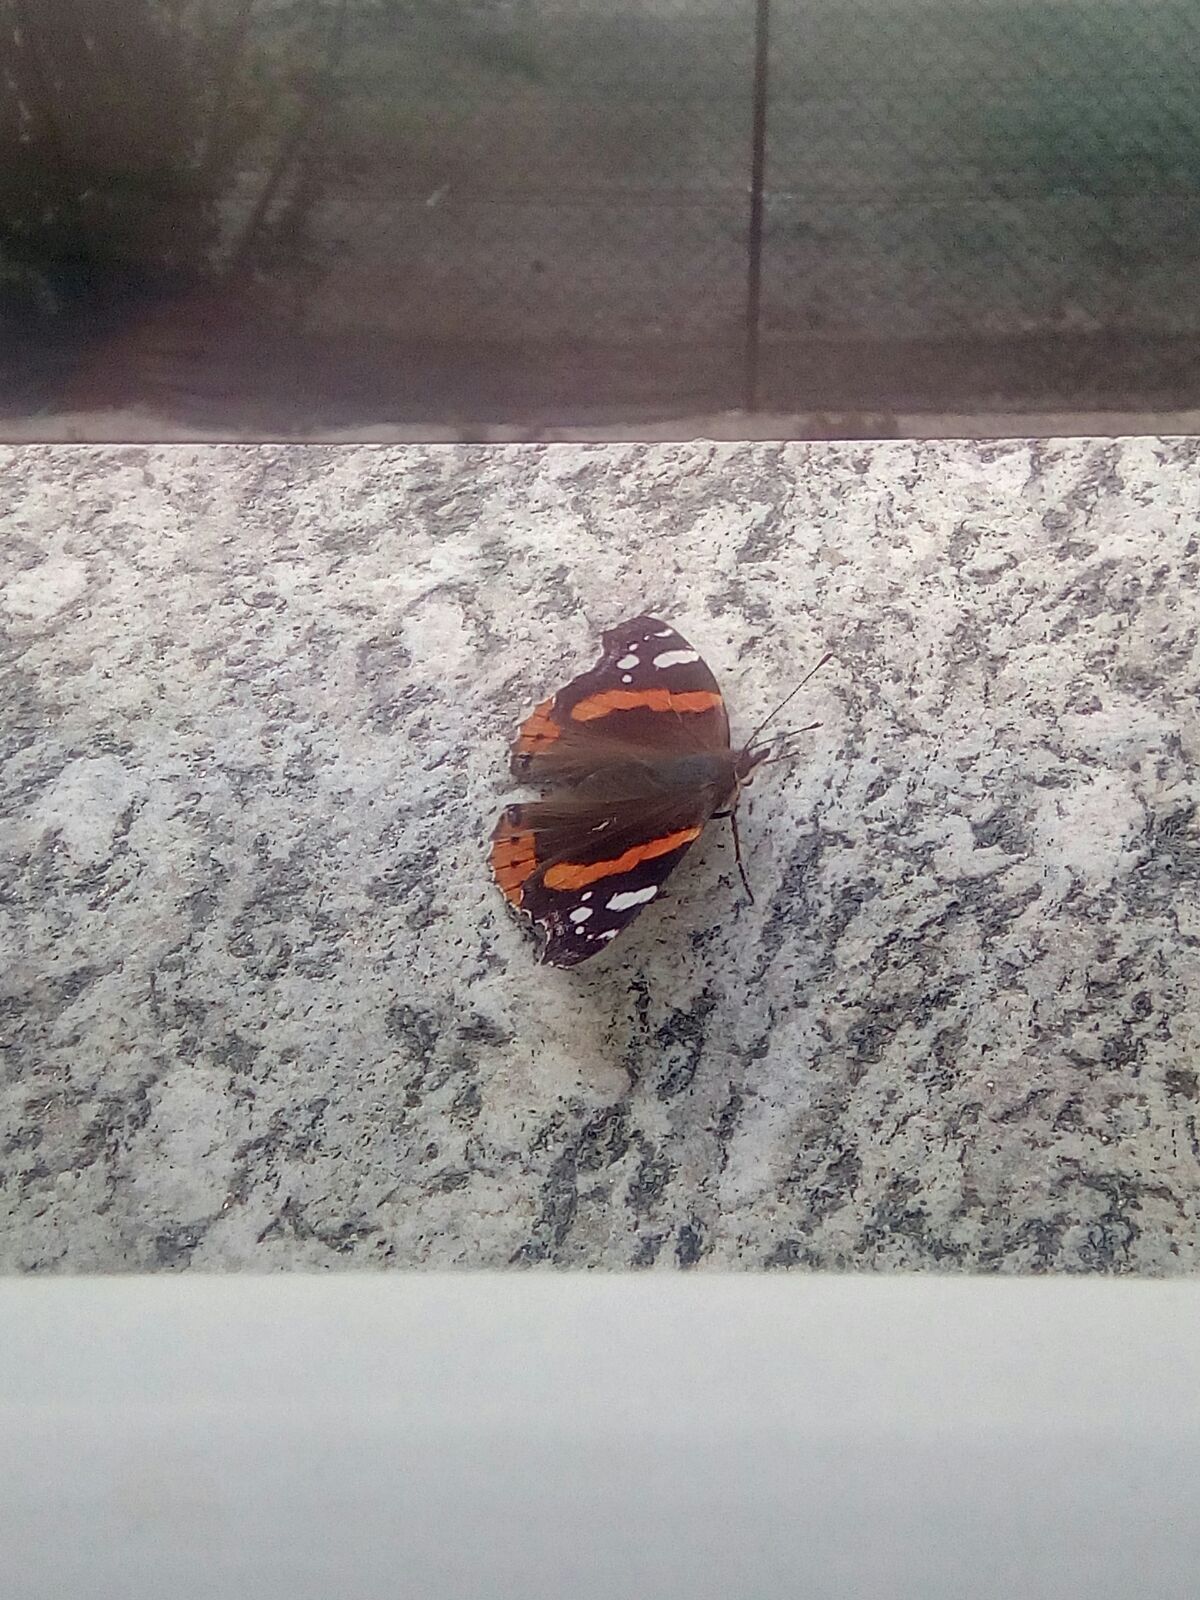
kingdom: Animalia
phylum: Arthropoda
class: Insecta
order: Lepidoptera
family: Nymphalidae
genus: Vanessa
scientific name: Vanessa atalanta
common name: Red admiral
